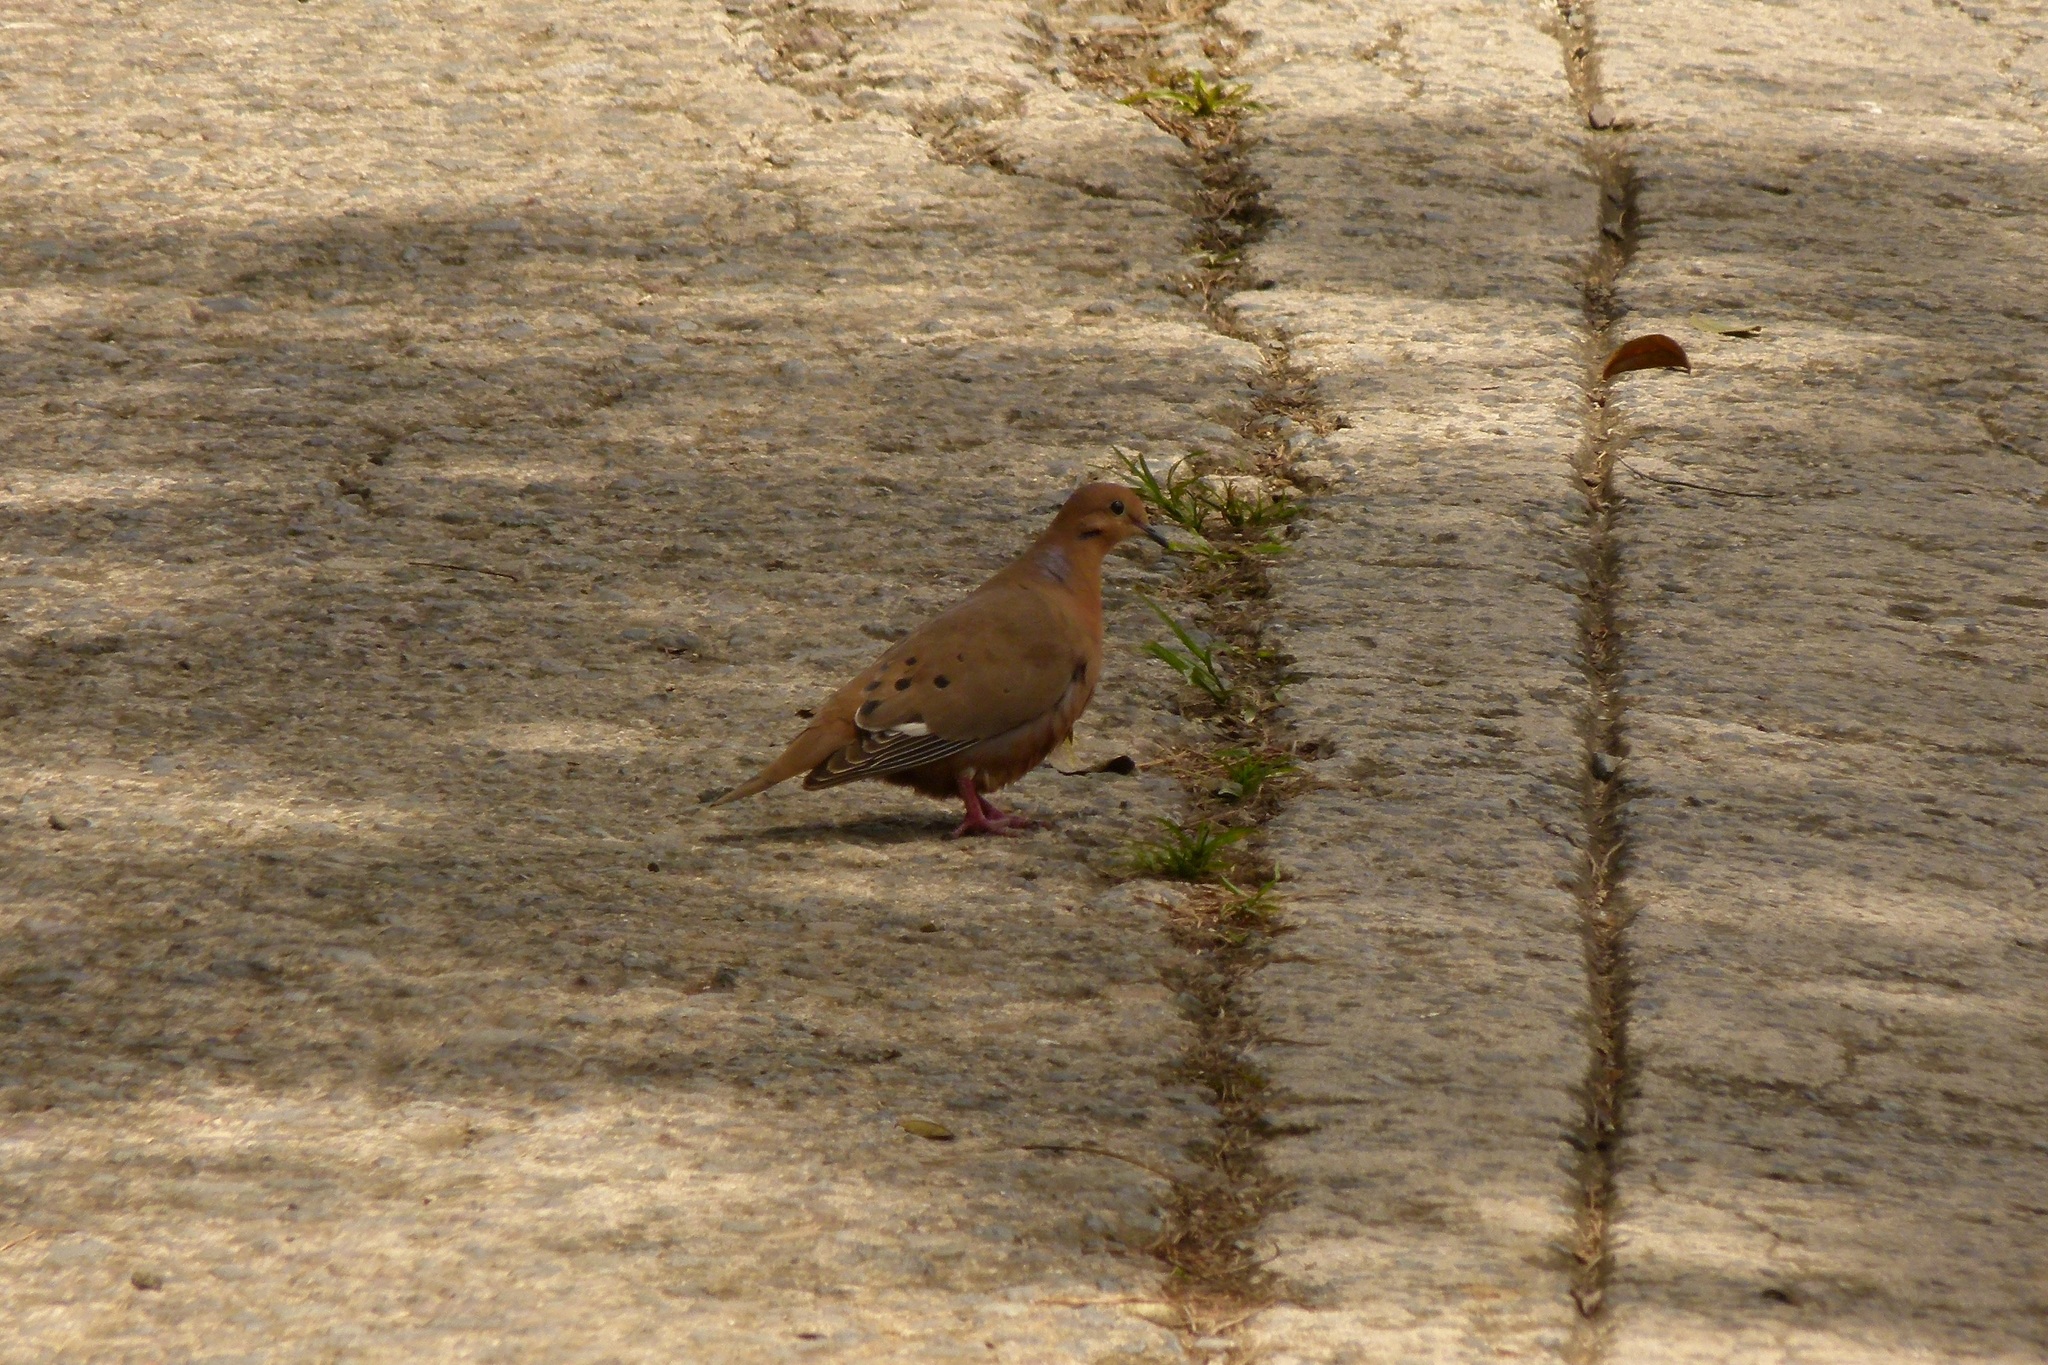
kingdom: Animalia
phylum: Chordata
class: Aves
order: Columbiformes
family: Columbidae
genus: Zenaida
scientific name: Zenaida aurita
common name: Zenaida dove
